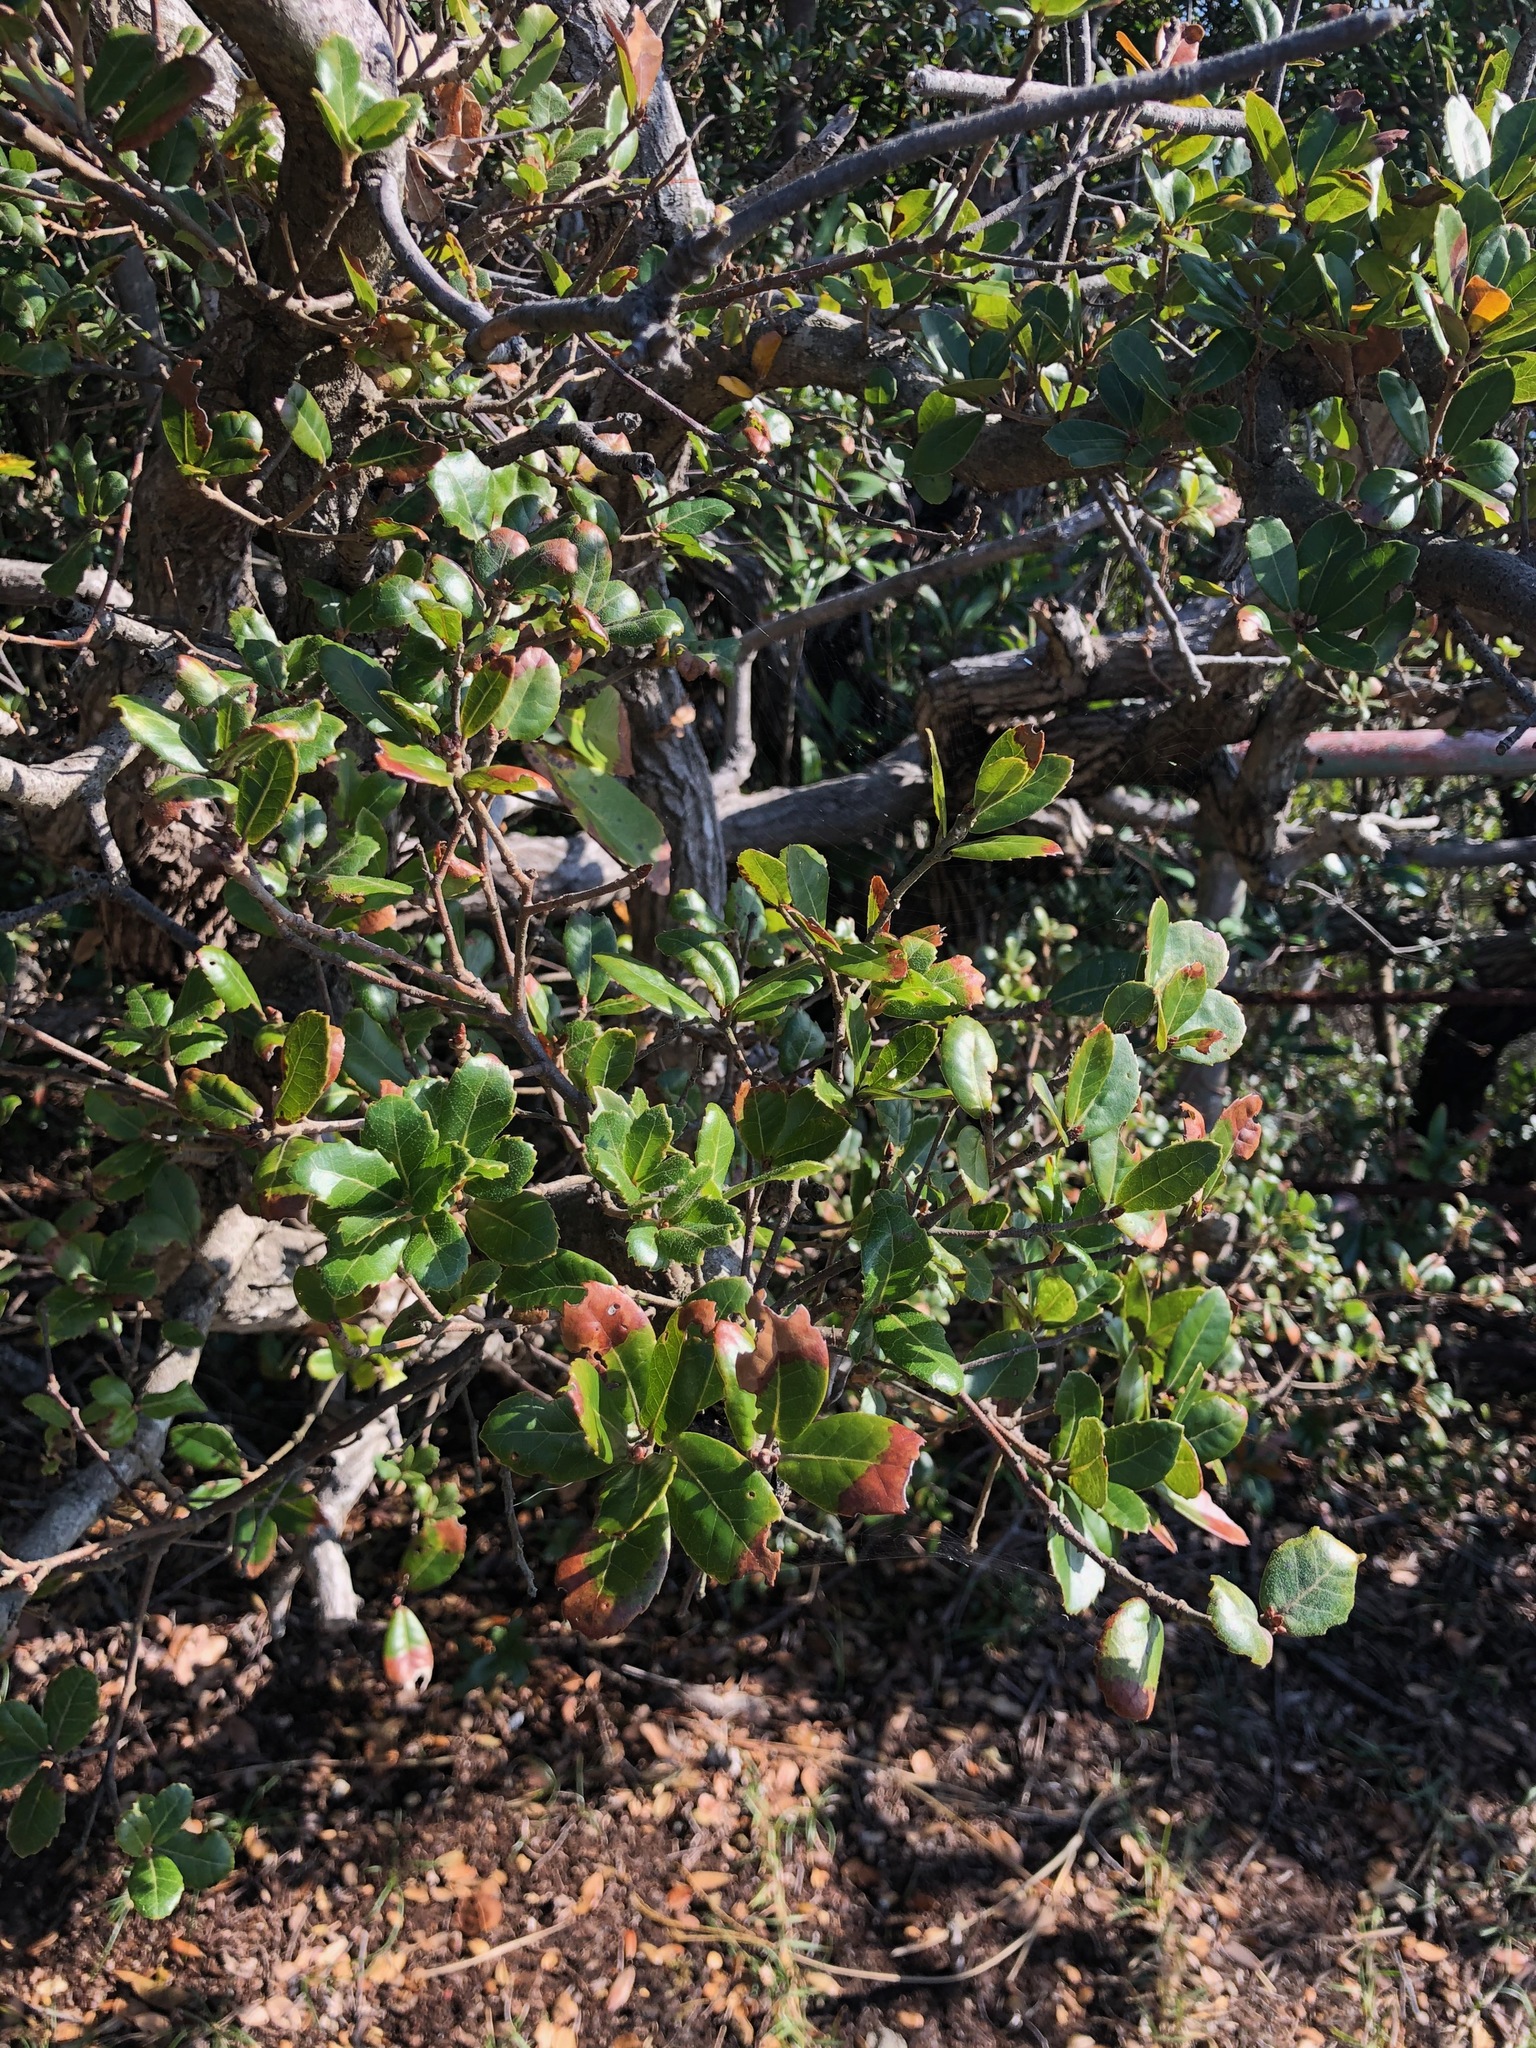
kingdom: Plantae
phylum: Tracheophyta
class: Magnoliopsida
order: Fagales
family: Fagaceae
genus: Quercus
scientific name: Quercus phillyreoides
